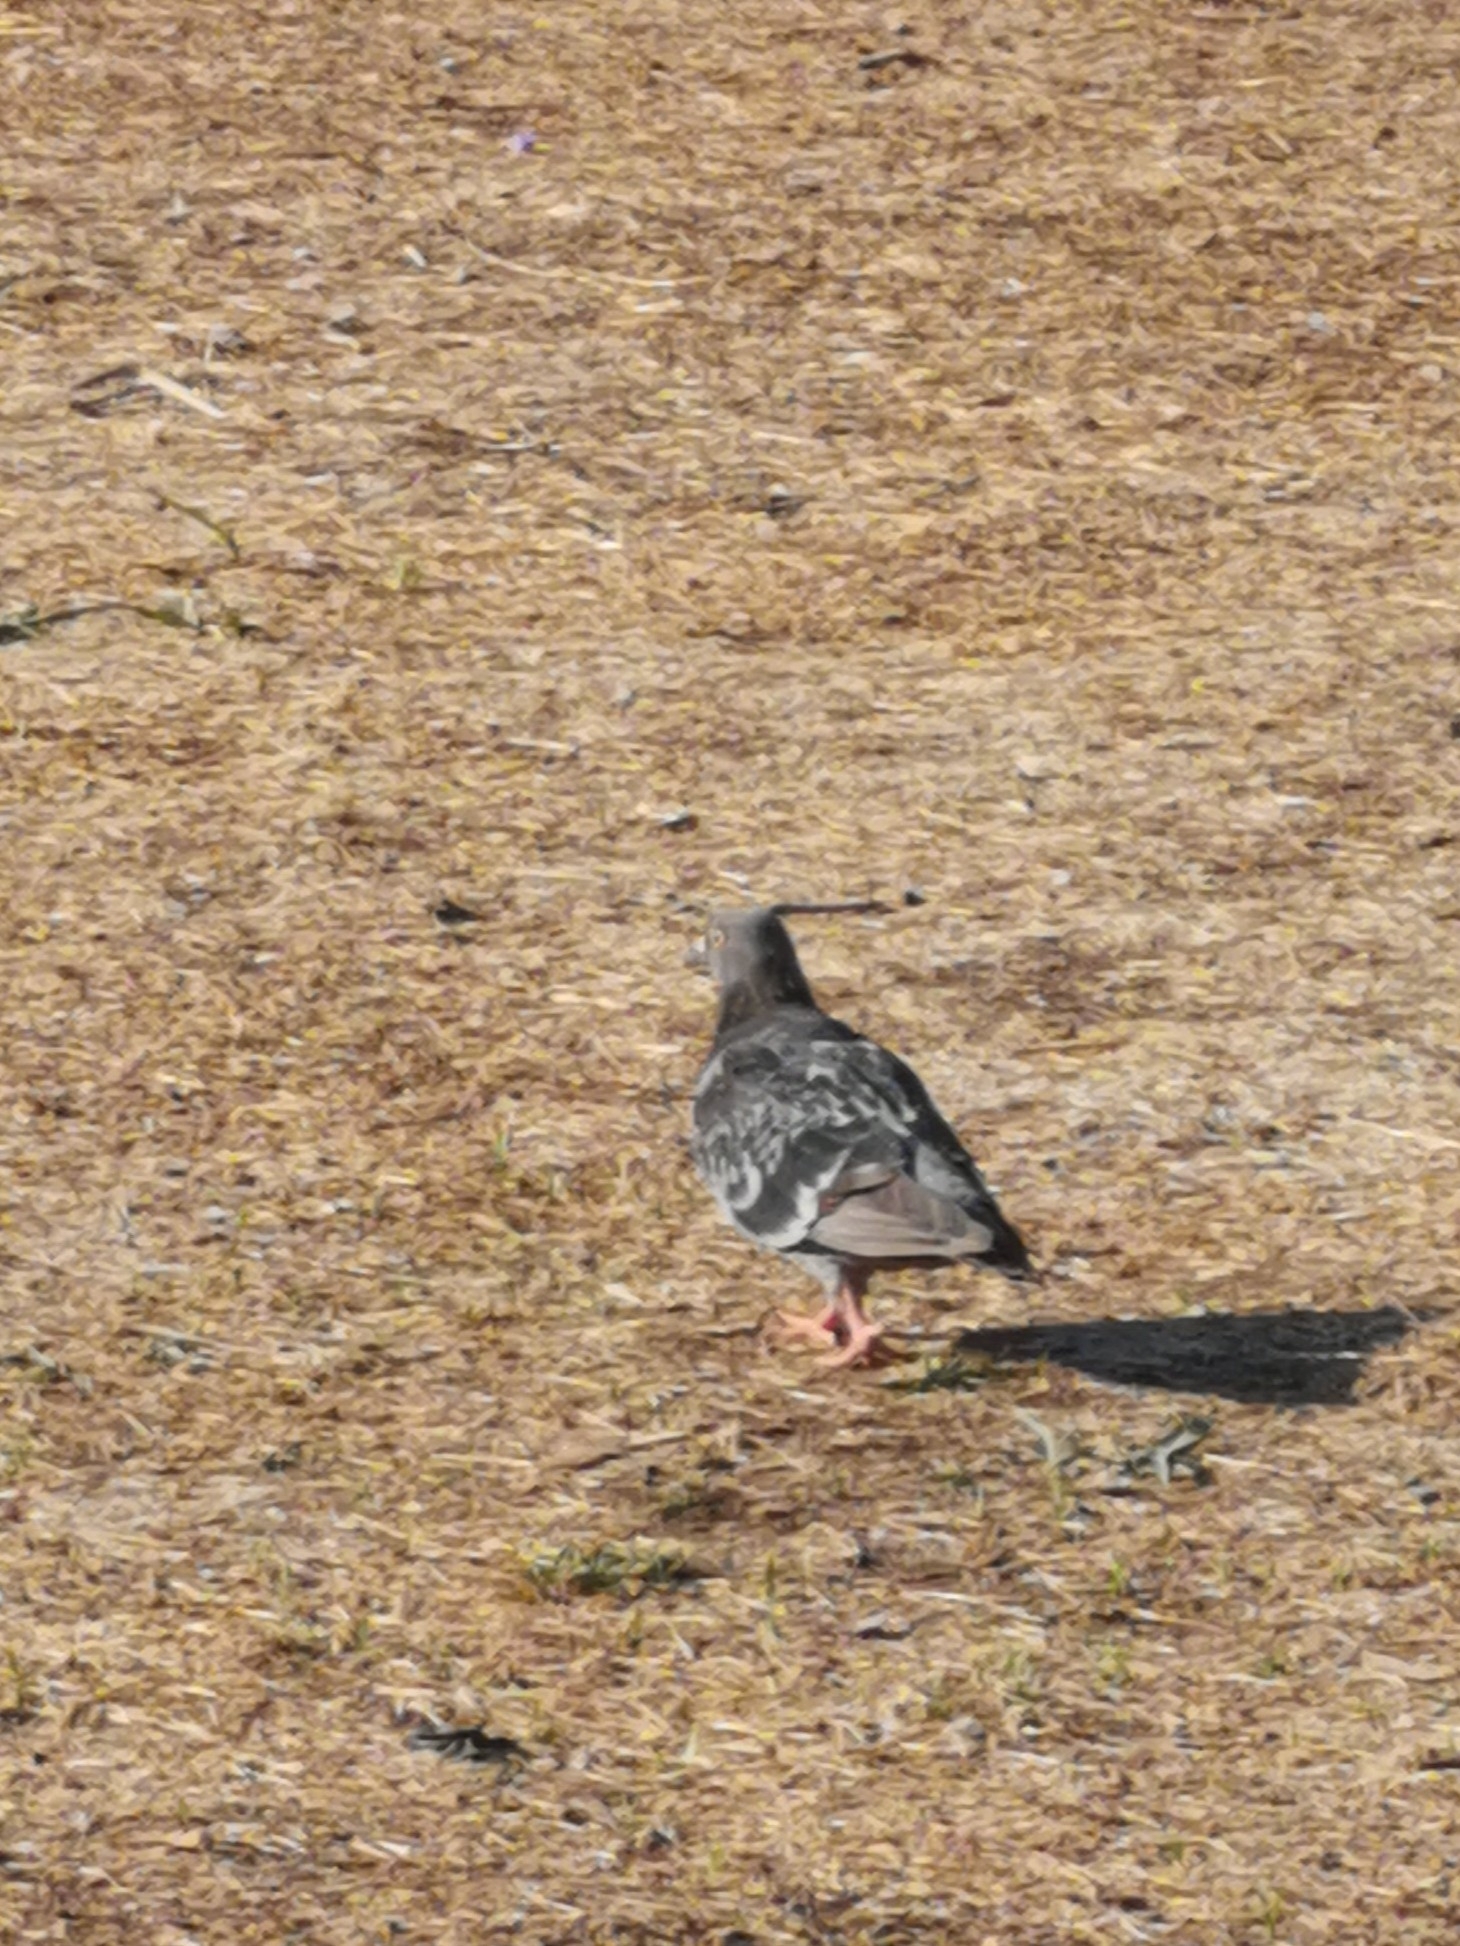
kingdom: Animalia
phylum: Chordata
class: Aves
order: Columbiformes
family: Columbidae
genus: Columba
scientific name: Columba livia
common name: Rock pigeon
